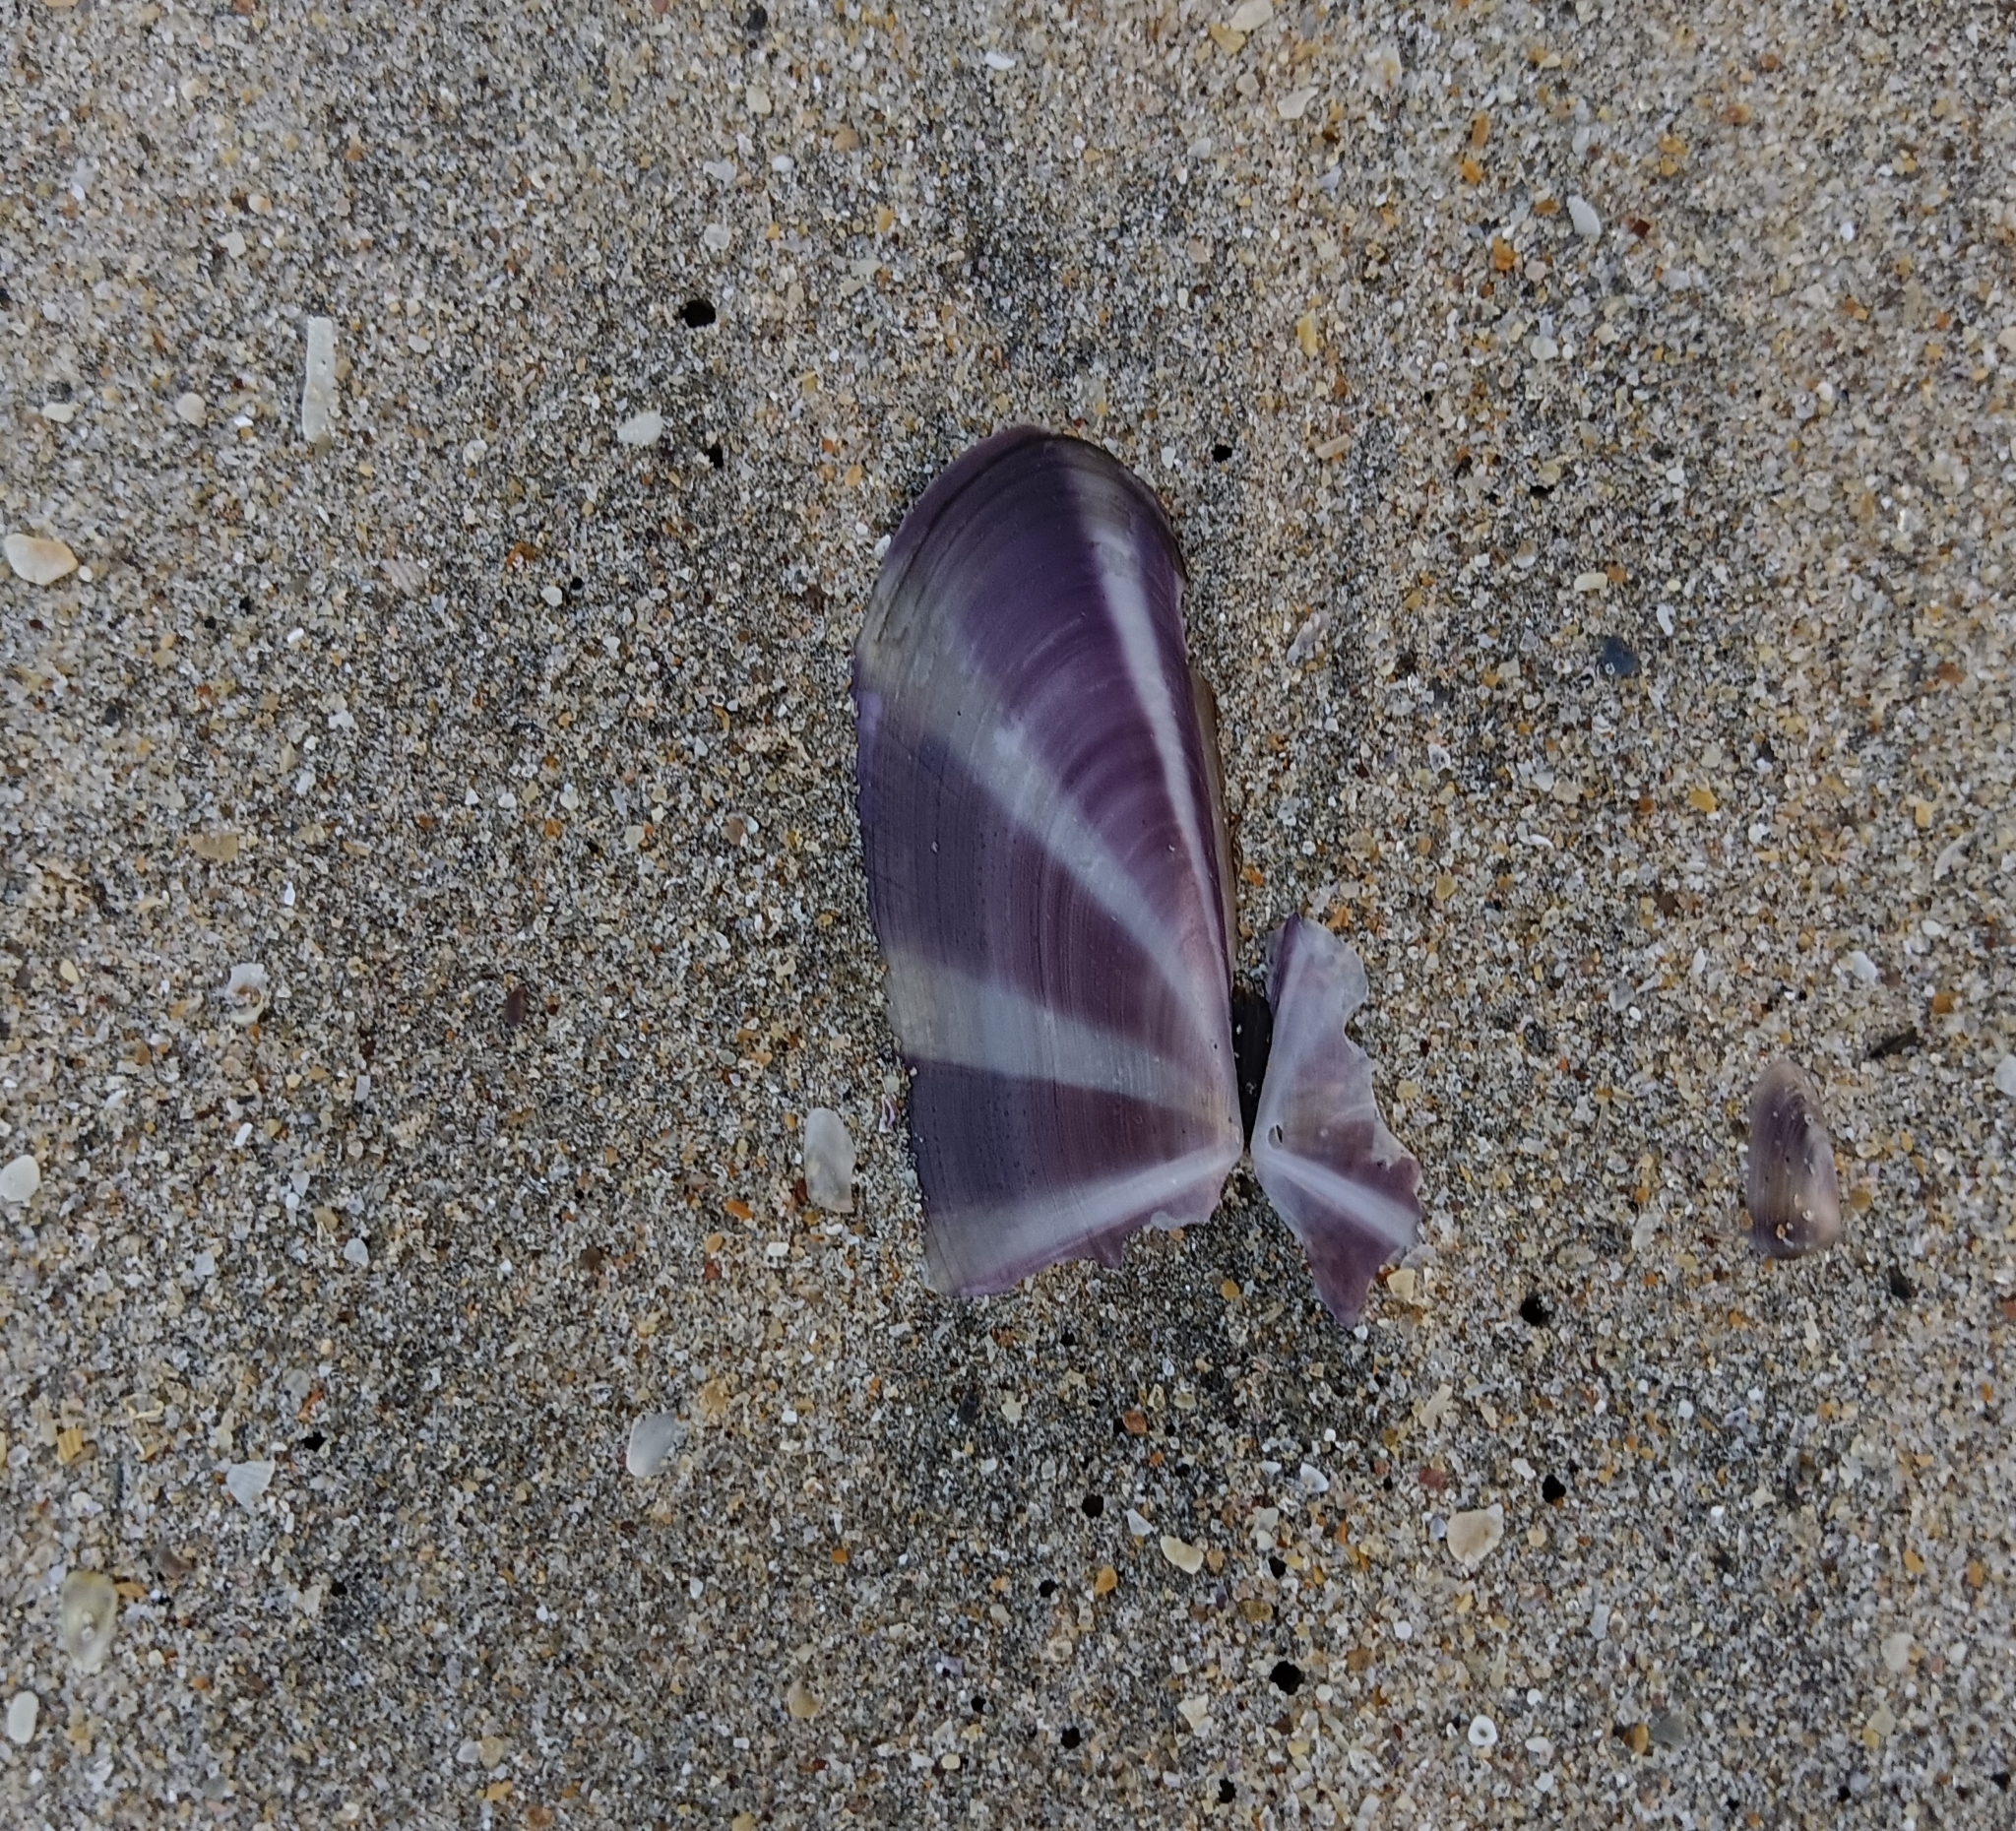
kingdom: Animalia
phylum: Mollusca
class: Bivalvia
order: Adapedonta
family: Pharidae
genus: Siliqua
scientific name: Siliqua radiata
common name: Sunset razor clam
